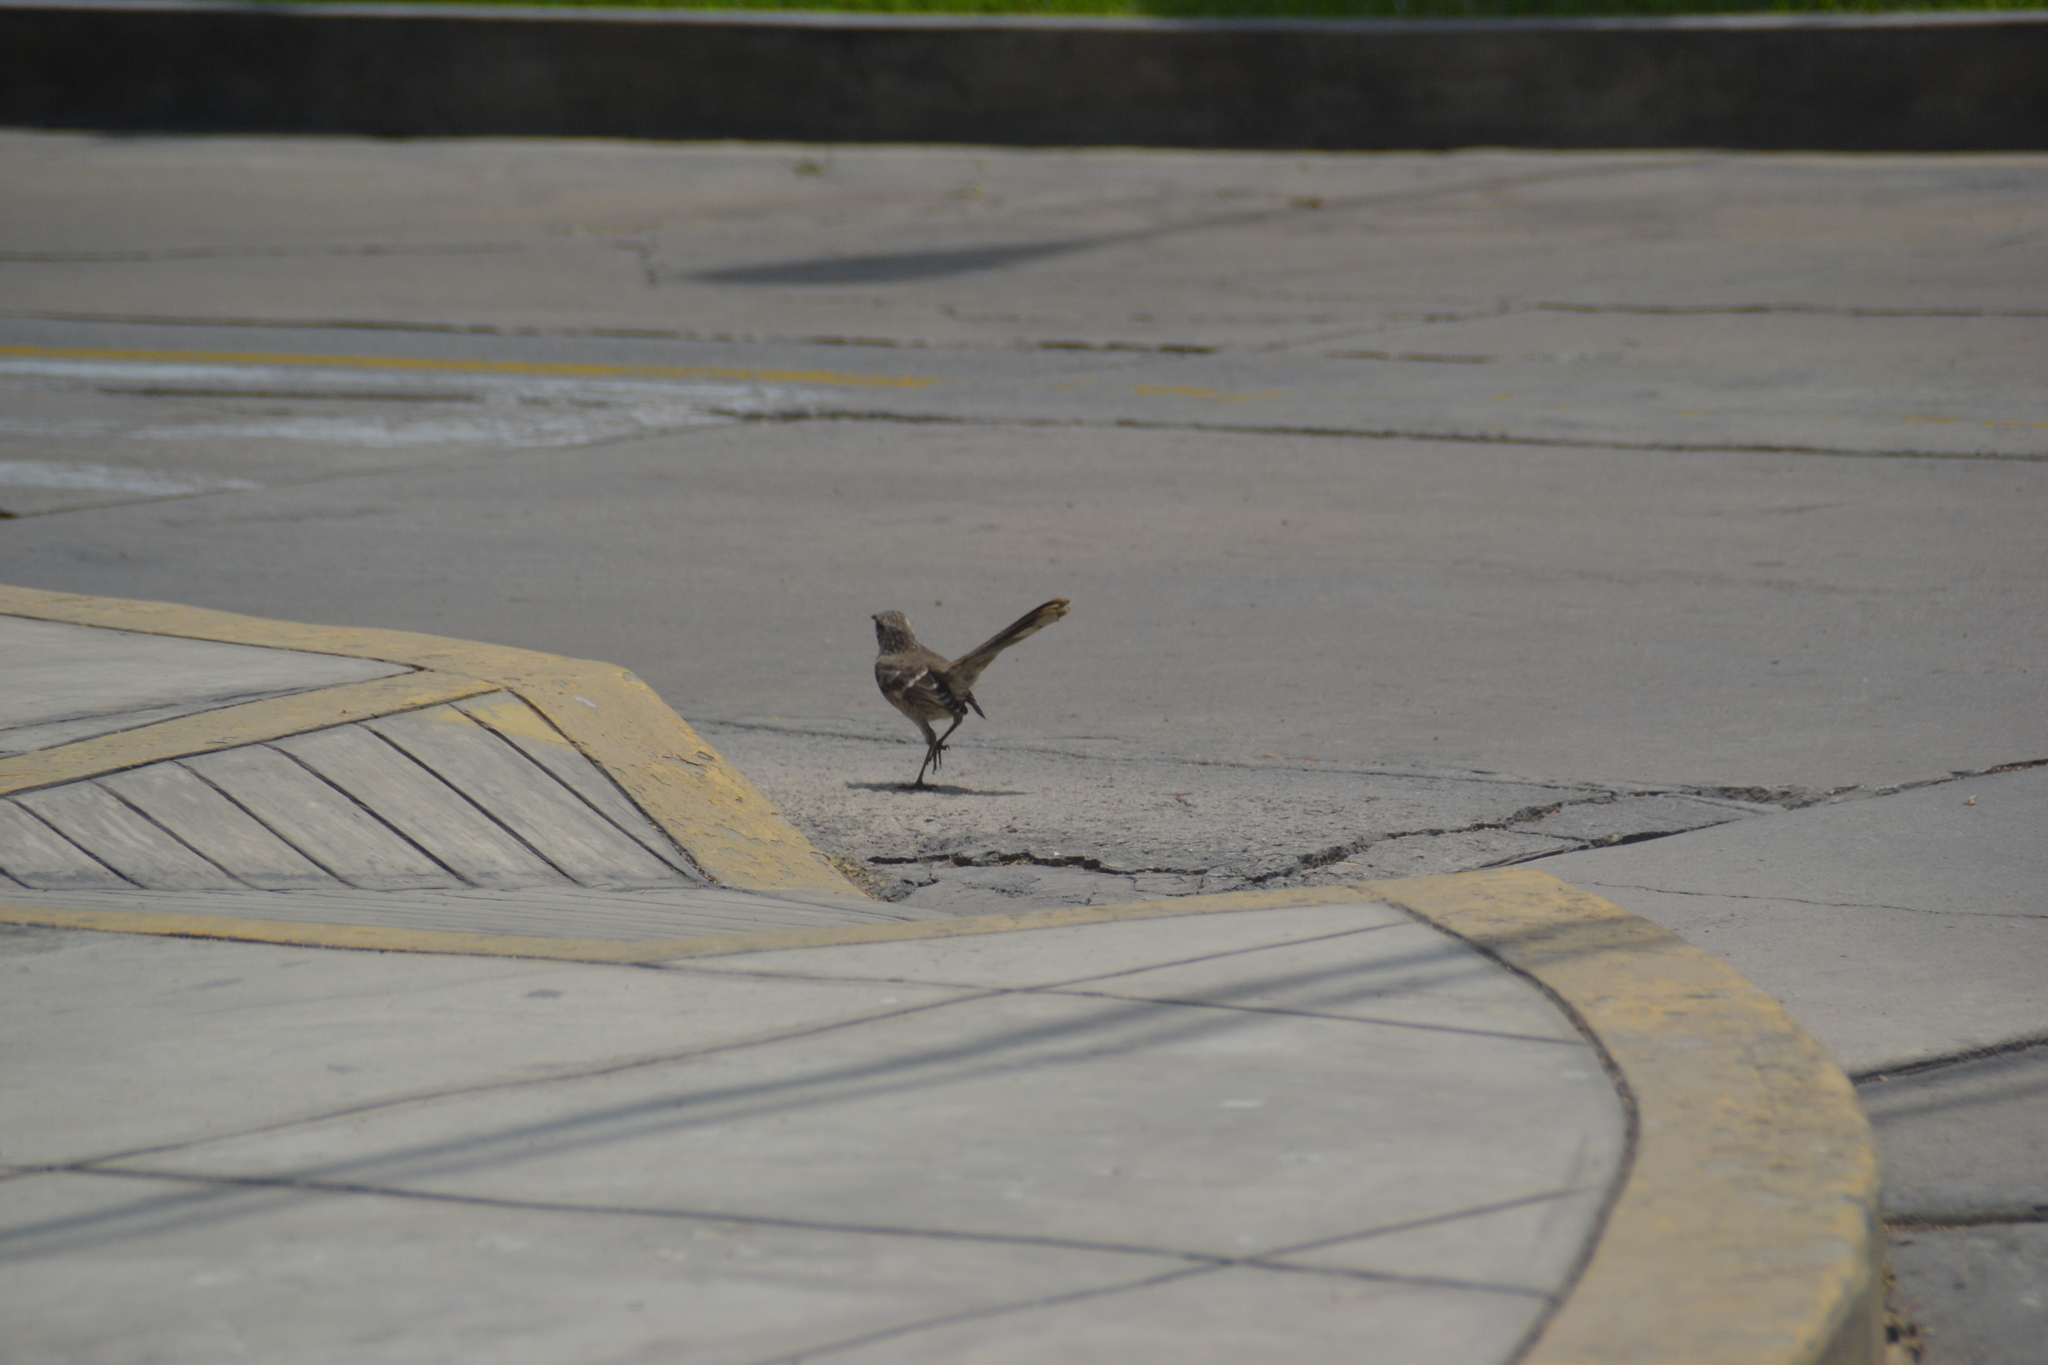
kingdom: Animalia
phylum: Chordata
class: Aves
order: Passeriformes
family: Mimidae
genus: Mimus
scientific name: Mimus longicaudatus
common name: Long-tailed mockingbird
